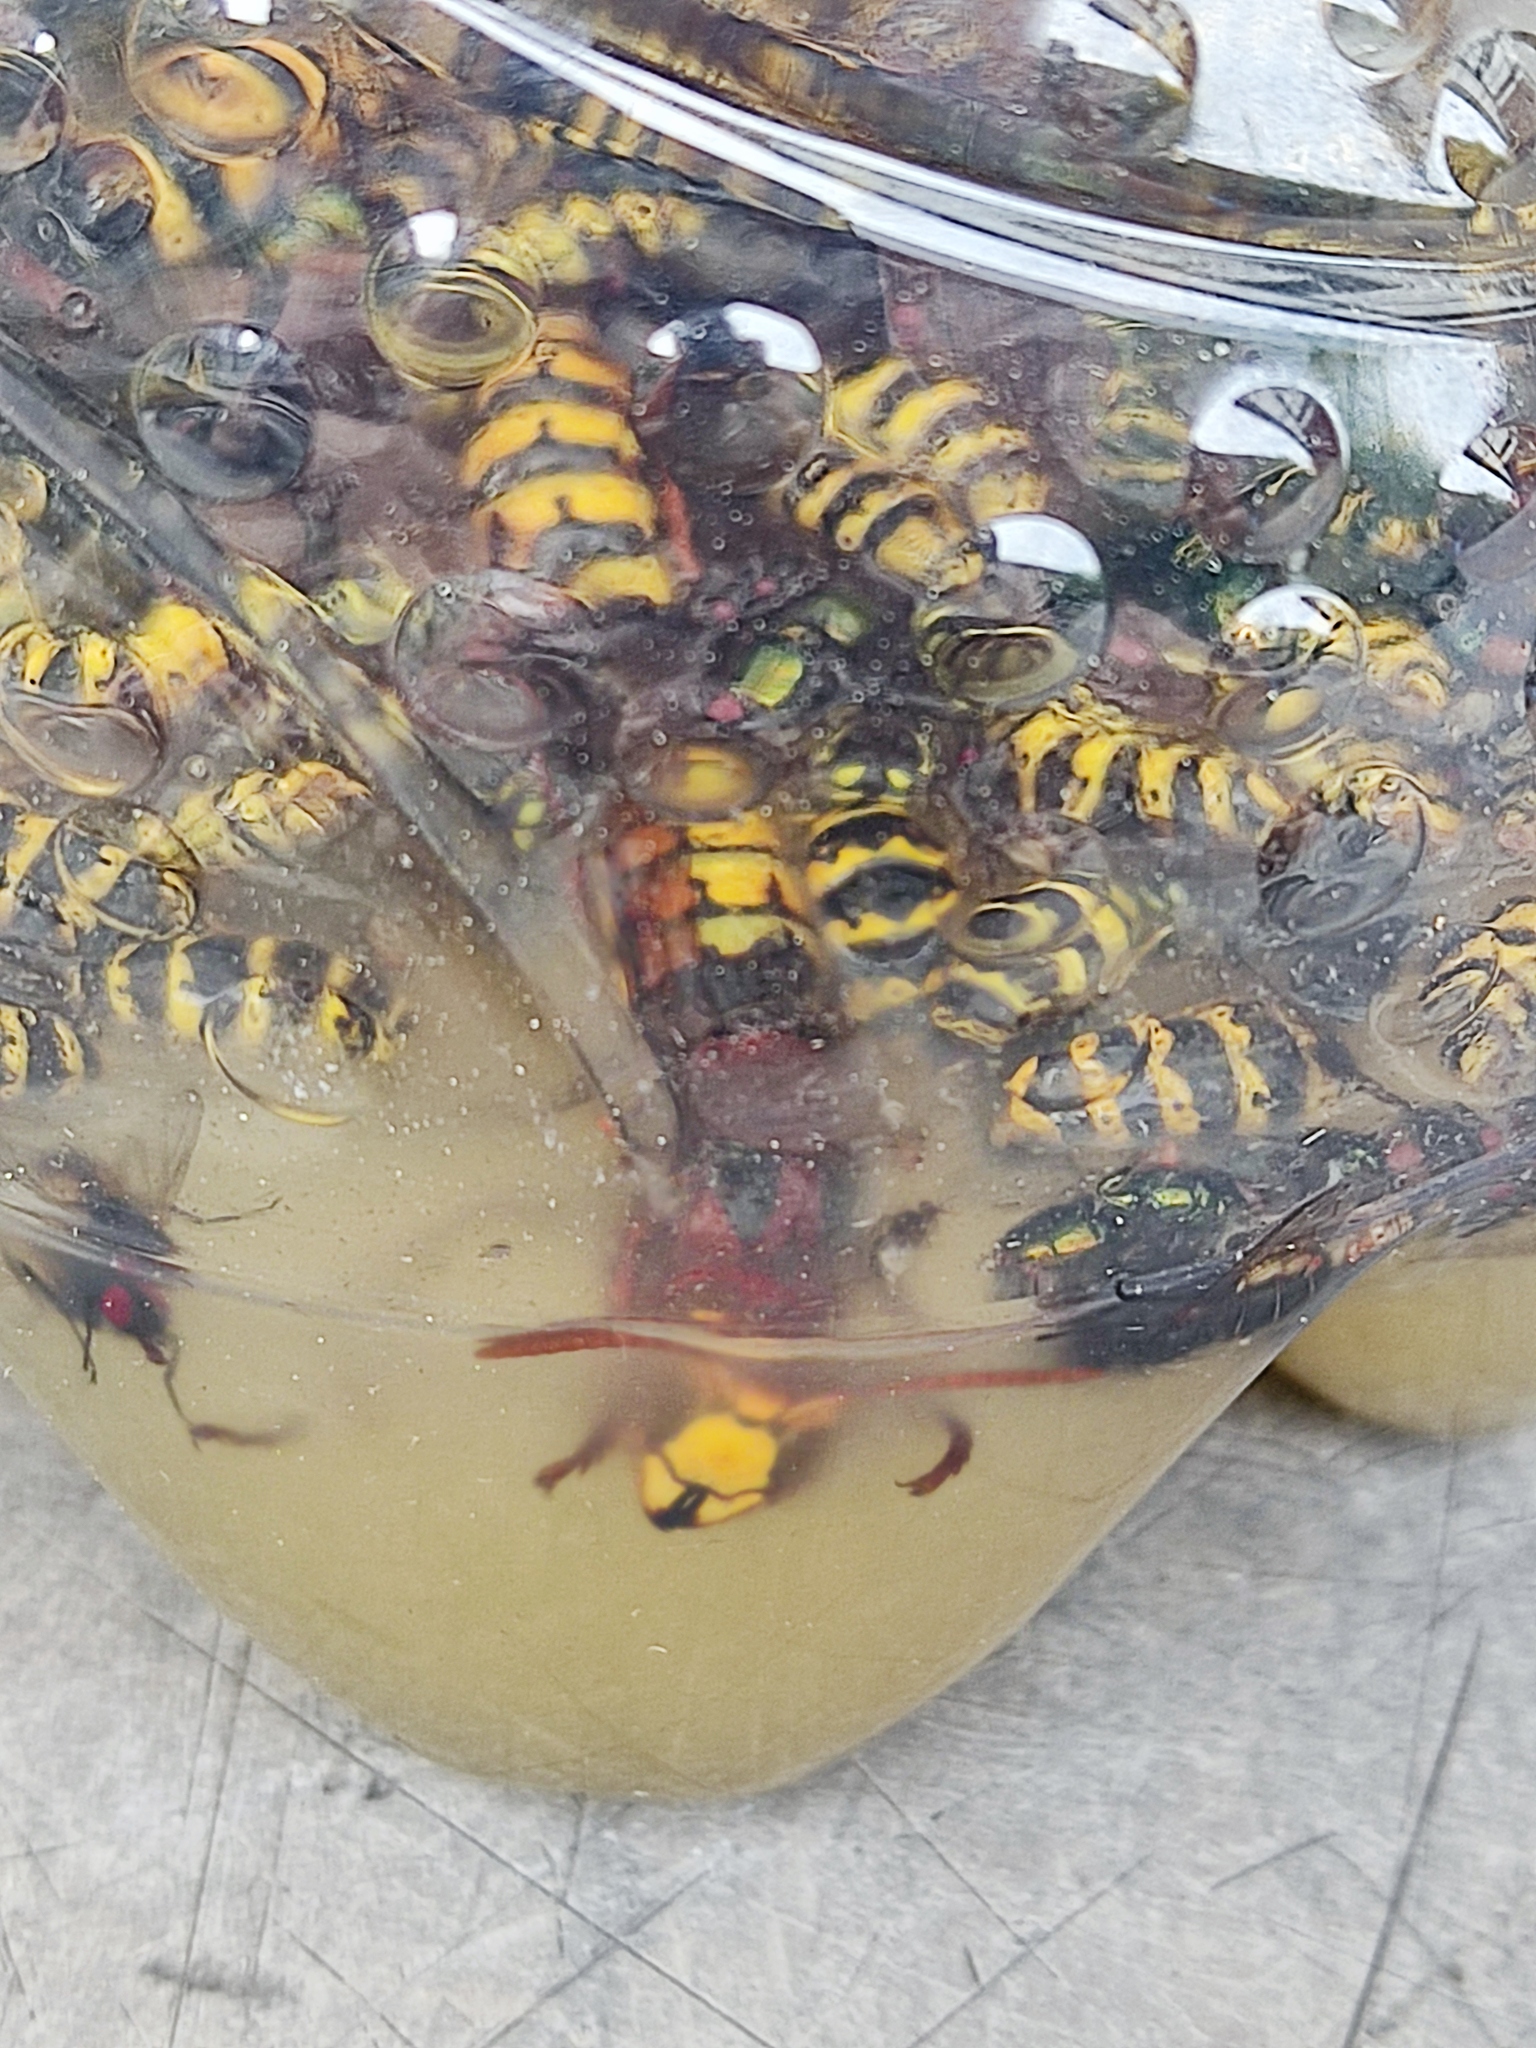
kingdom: Animalia
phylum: Arthropoda
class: Insecta
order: Hymenoptera
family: Vespidae
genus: Vespa
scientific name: Vespa crabro
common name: Hornet
